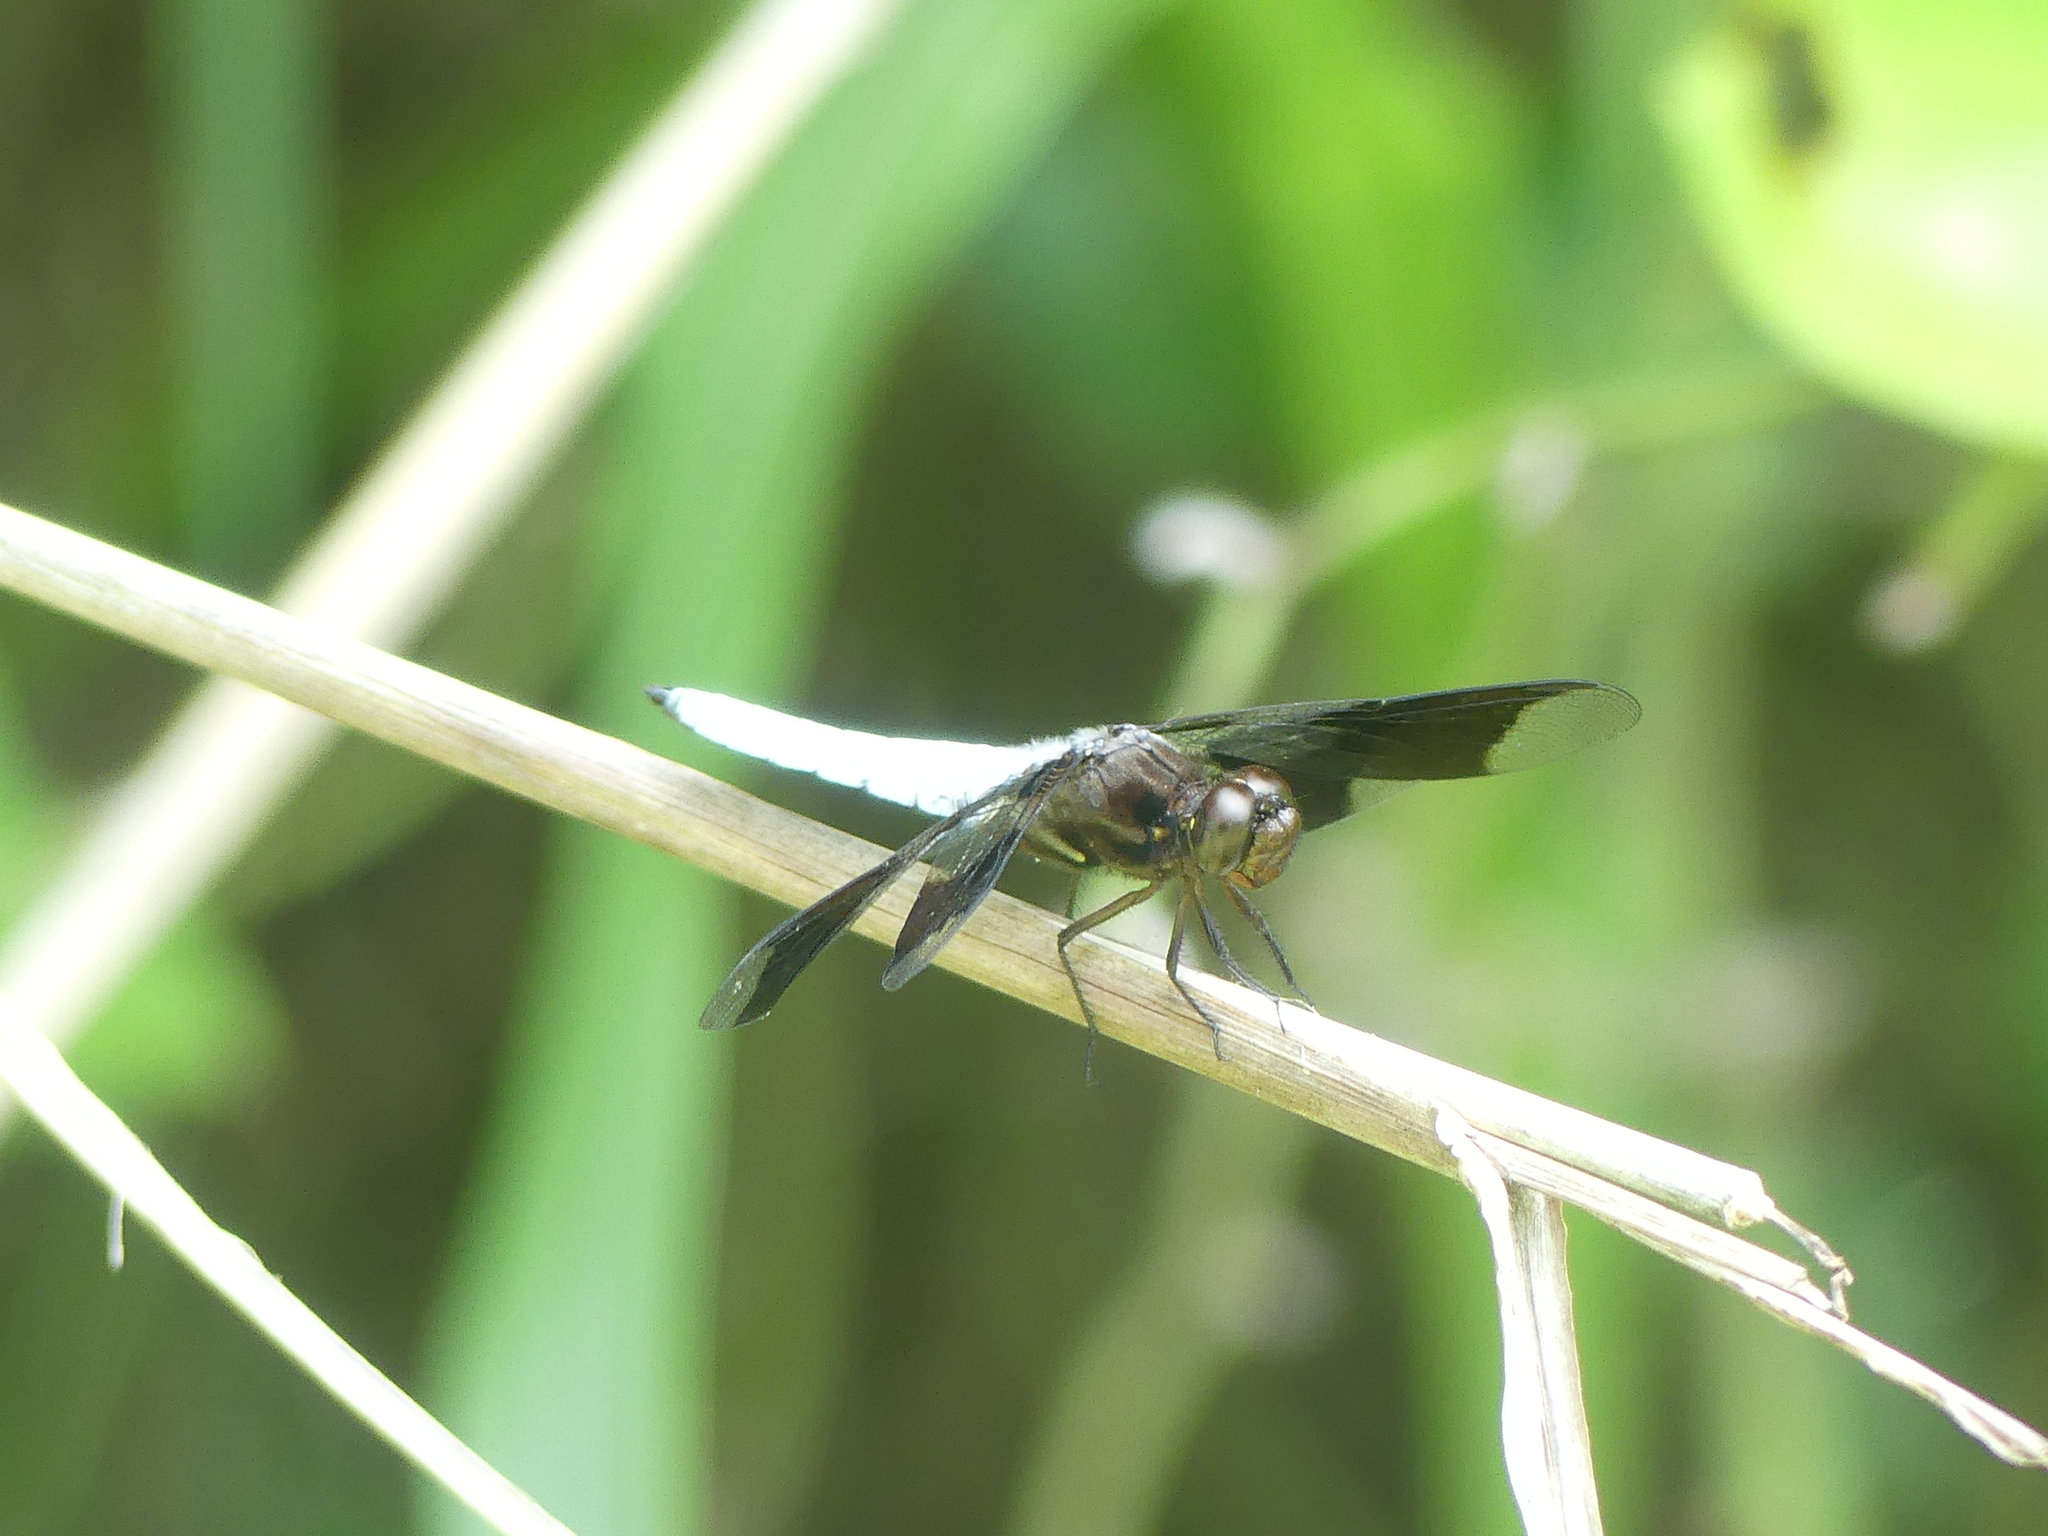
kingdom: Animalia
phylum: Arthropoda
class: Insecta
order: Odonata
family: Libellulidae
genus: Plathemis
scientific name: Plathemis lydia
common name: Common whitetail
